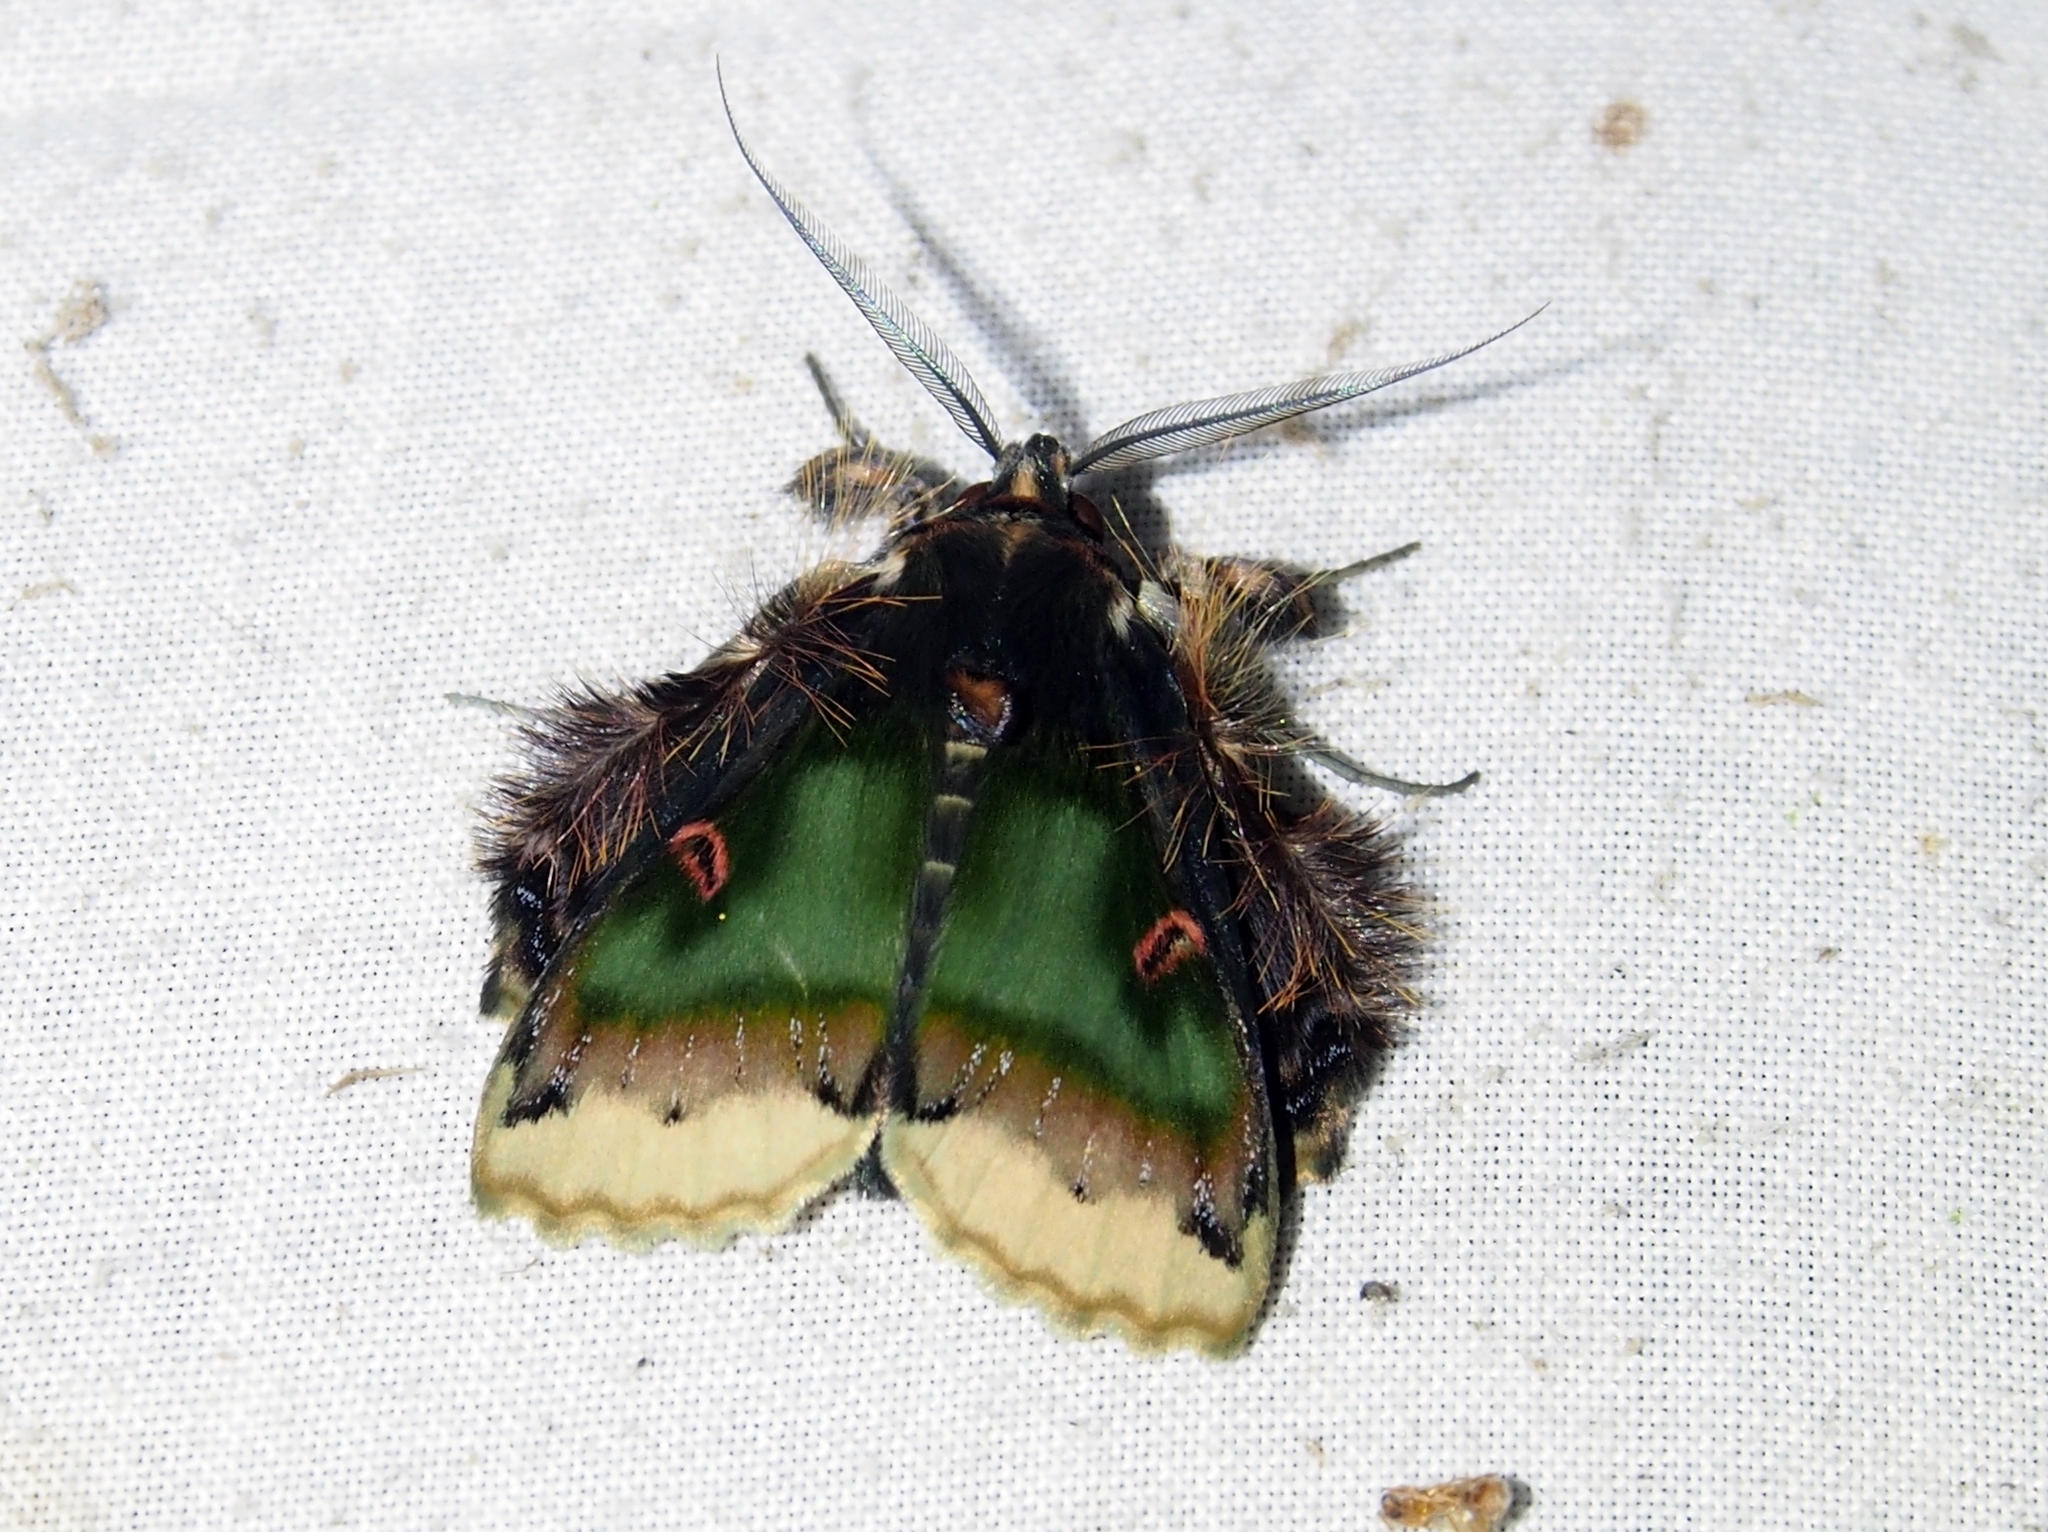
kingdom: Animalia
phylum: Arthropoda
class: Insecta
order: Lepidoptera
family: Erebidae
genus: Ceroctena
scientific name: Ceroctena amynta
